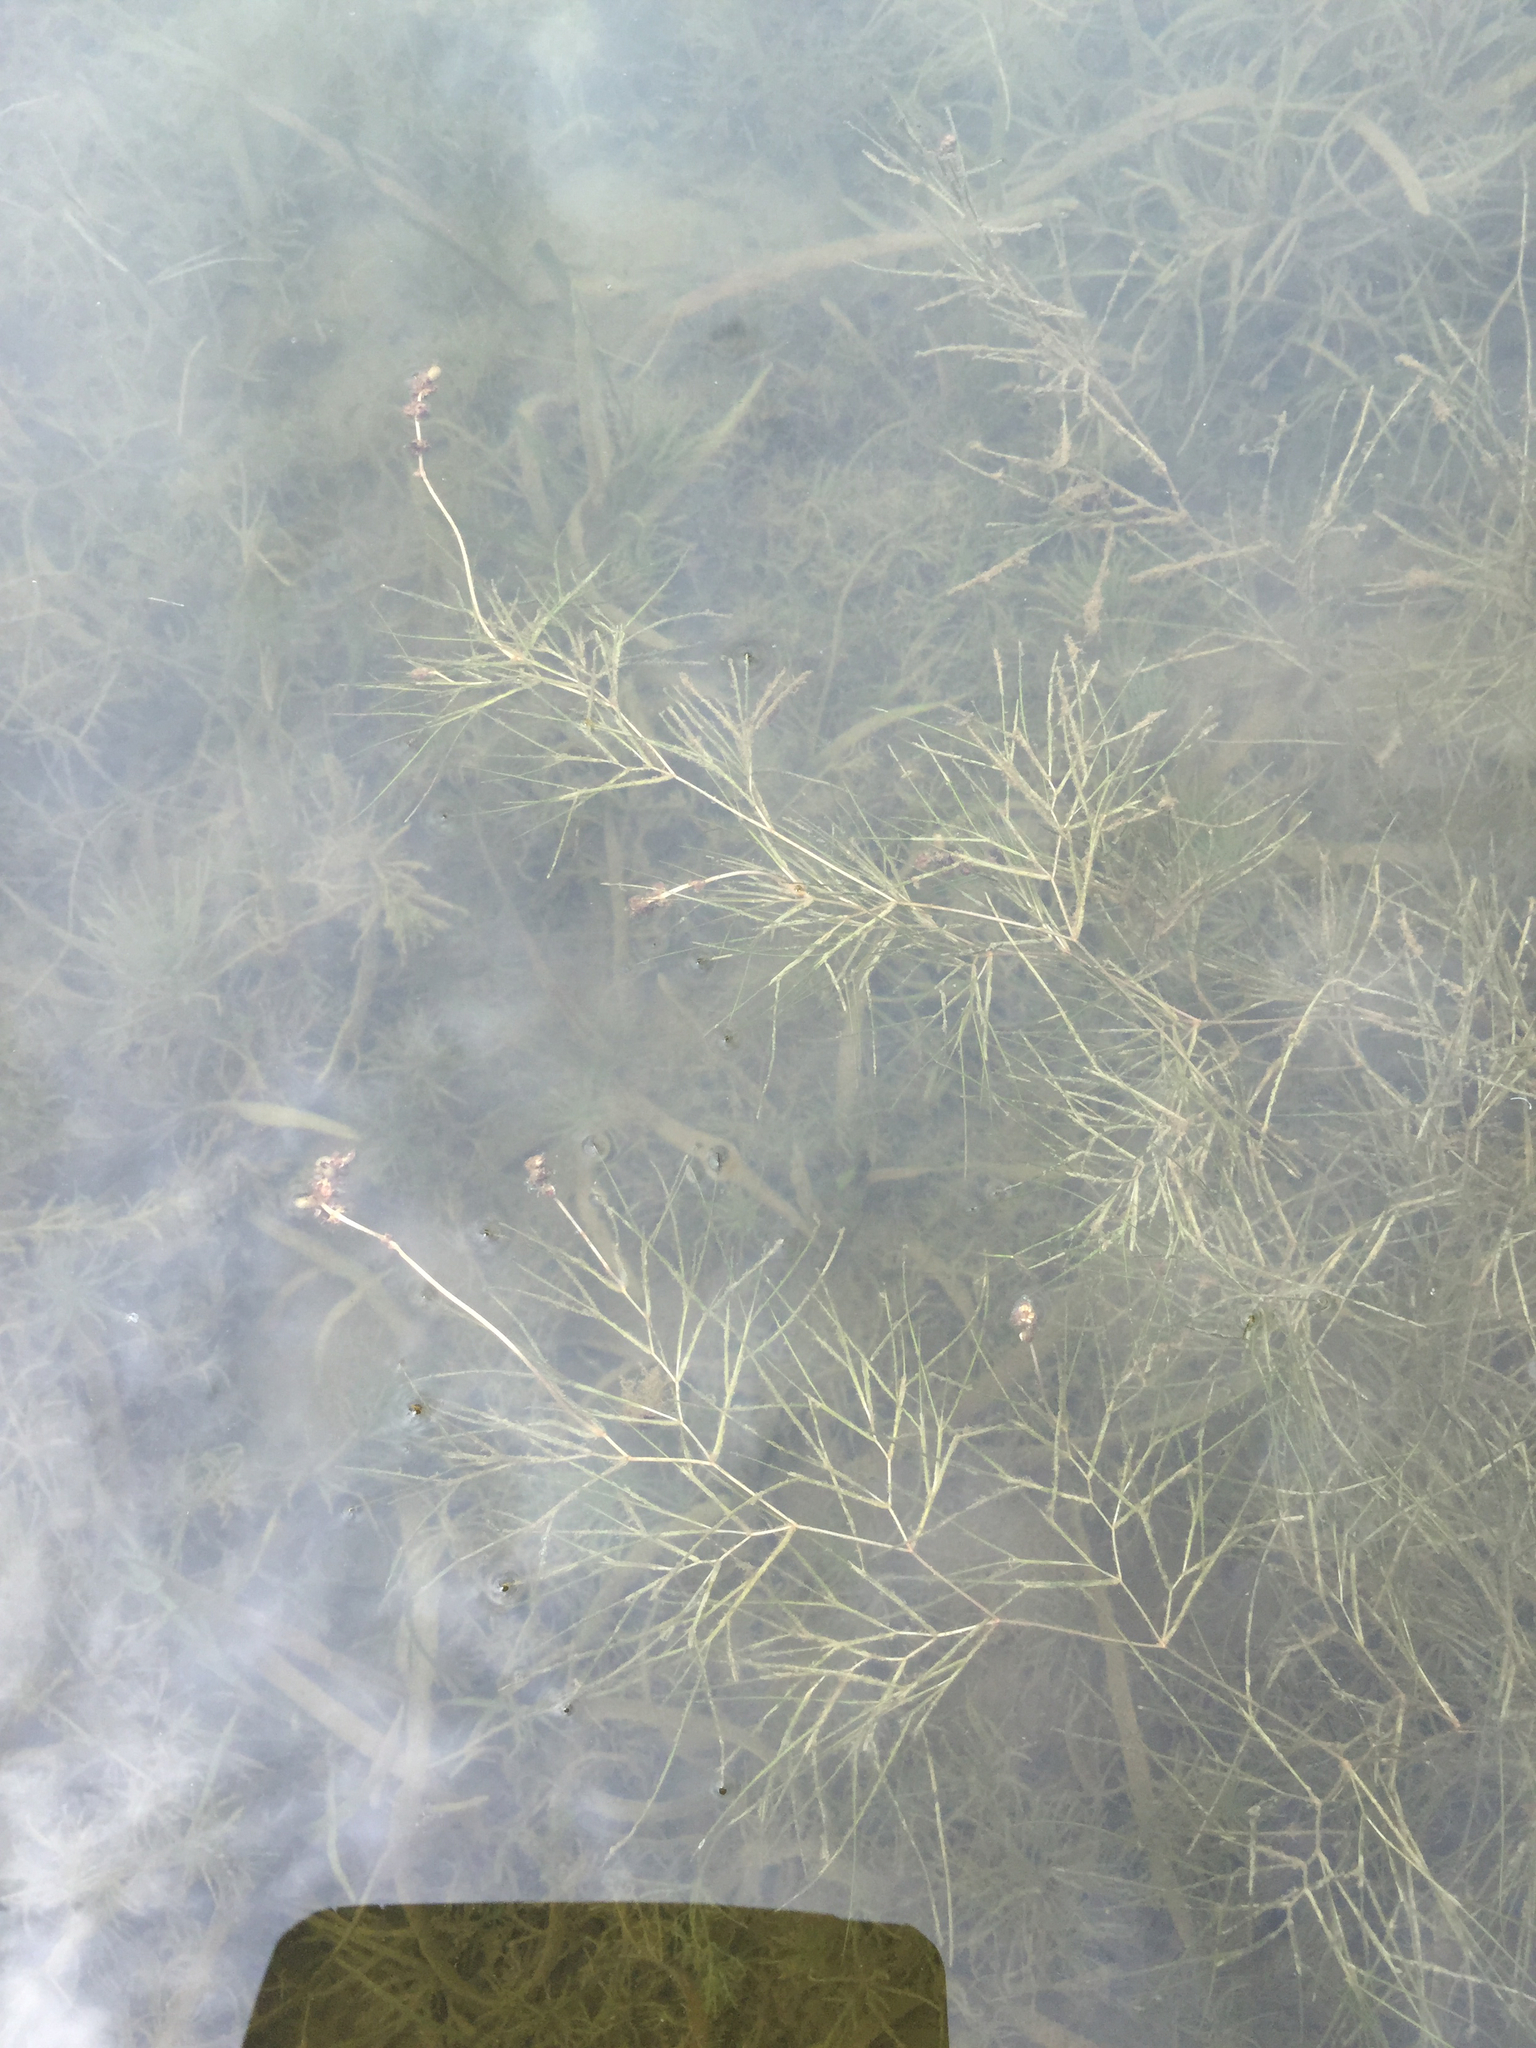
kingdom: Plantae
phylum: Tracheophyta
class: Liliopsida
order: Alismatales
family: Potamogetonaceae
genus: Stuckenia
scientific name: Stuckenia pectinata
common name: Sago pondweed
